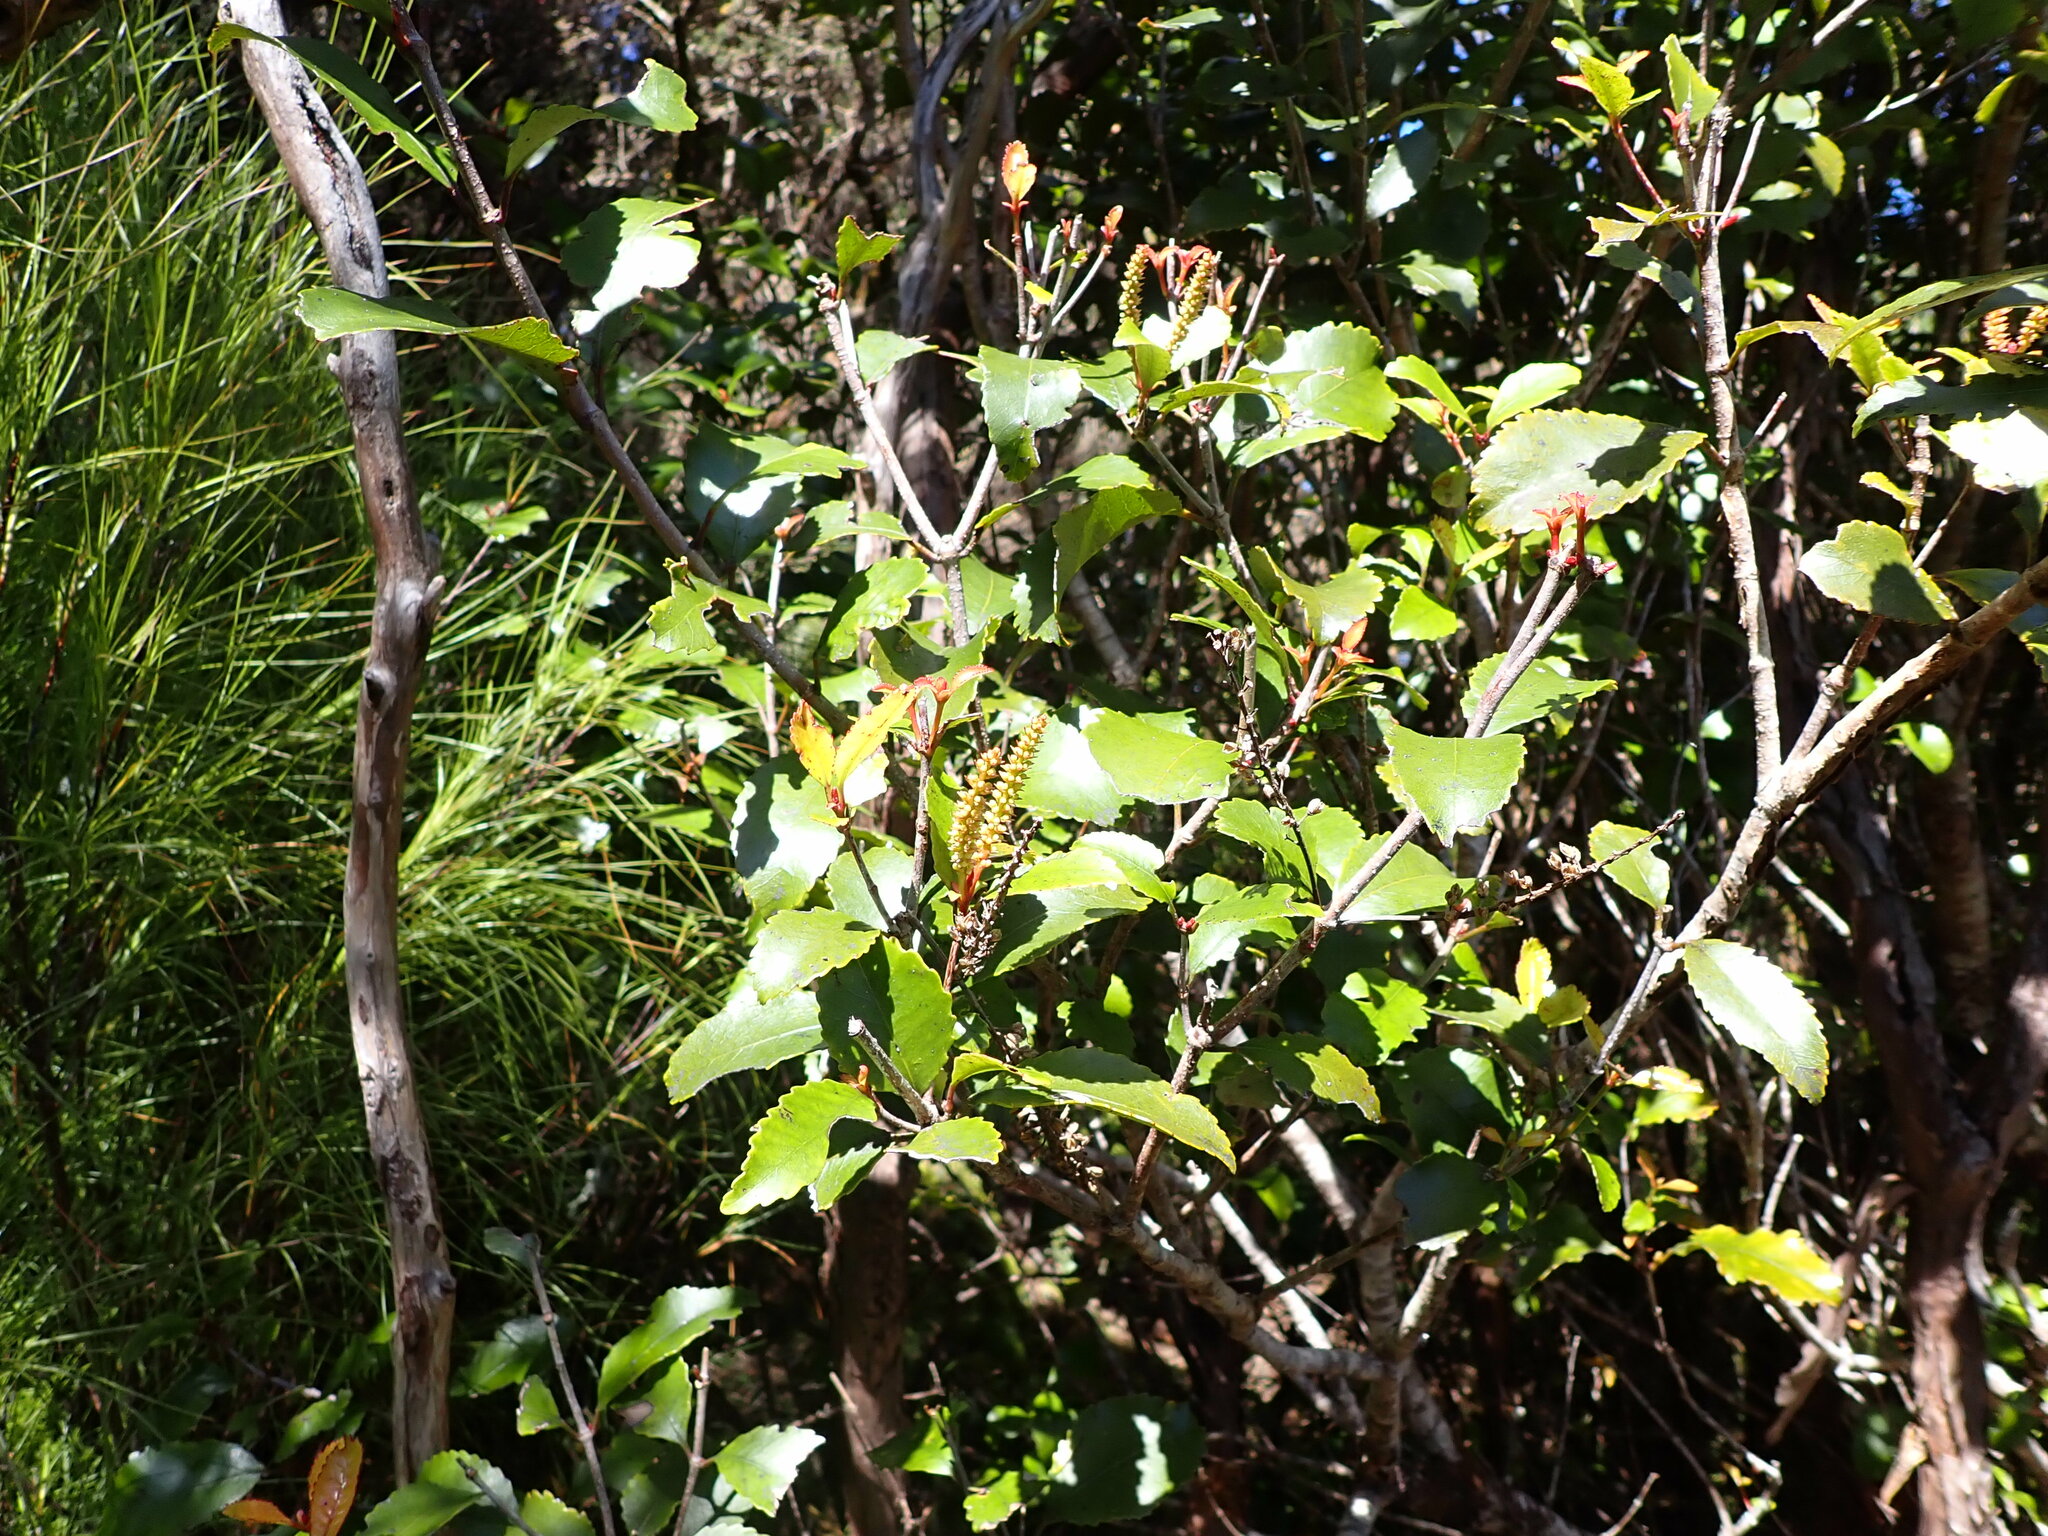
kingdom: Plantae
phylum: Tracheophyta
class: Magnoliopsida
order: Oxalidales
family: Cunoniaceae
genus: Pterophylla
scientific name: Pterophylla racemosa
